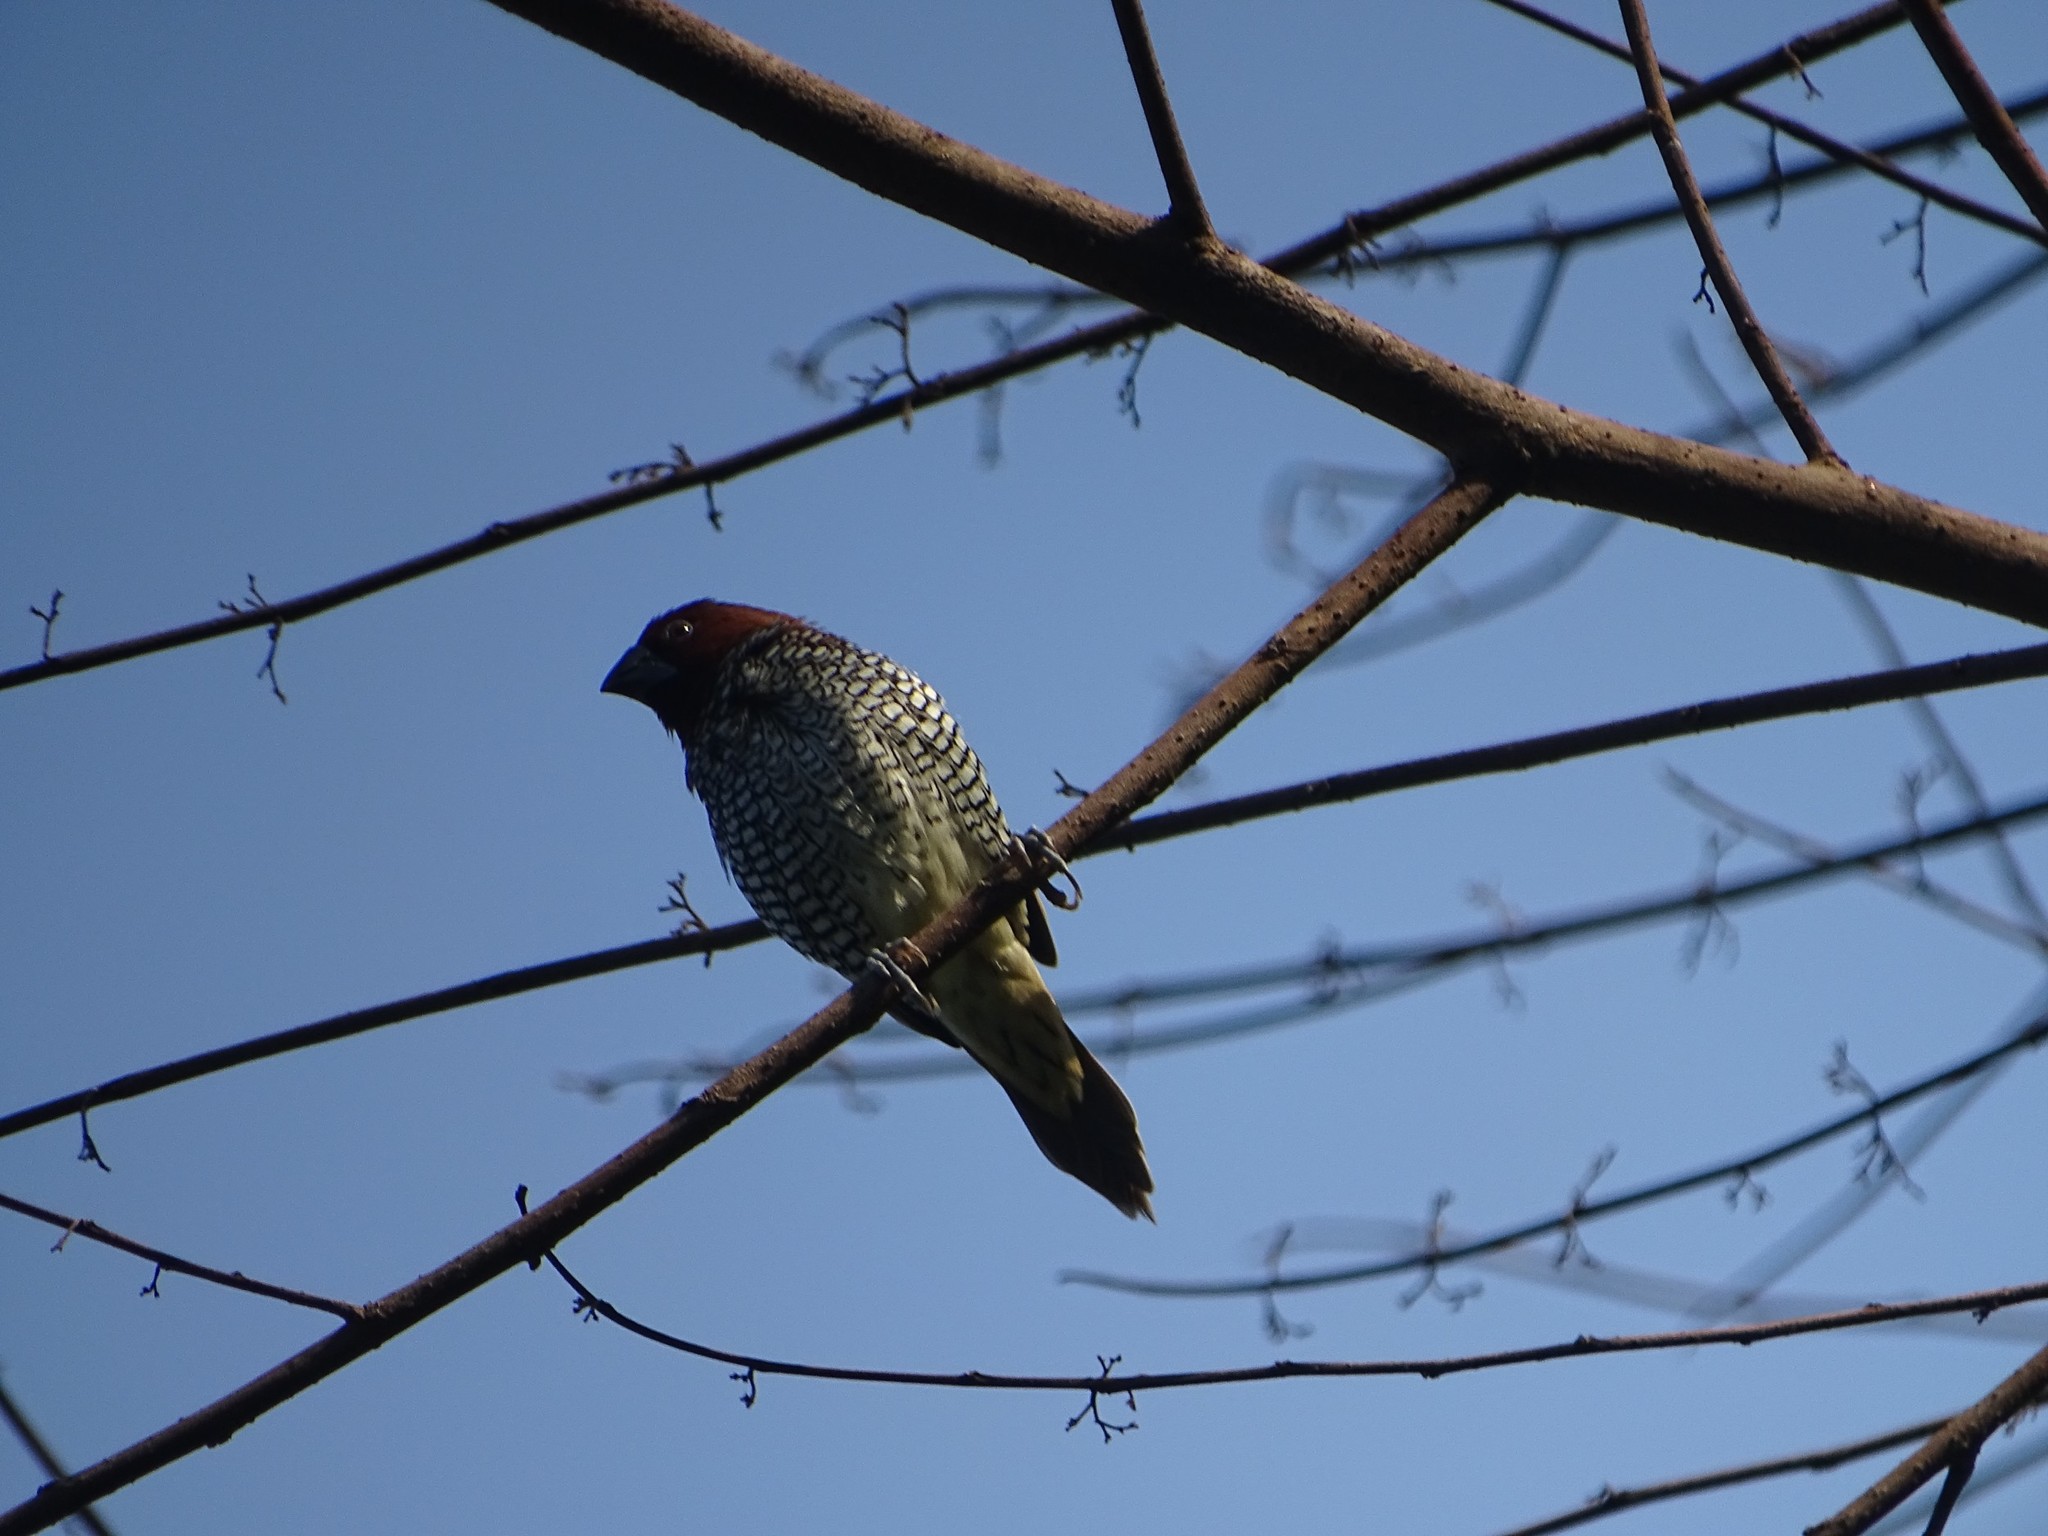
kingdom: Animalia
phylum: Chordata
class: Aves
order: Passeriformes
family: Estrildidae
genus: Lonchura
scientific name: Lonchura punctulata
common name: Scaly-breasted munia
